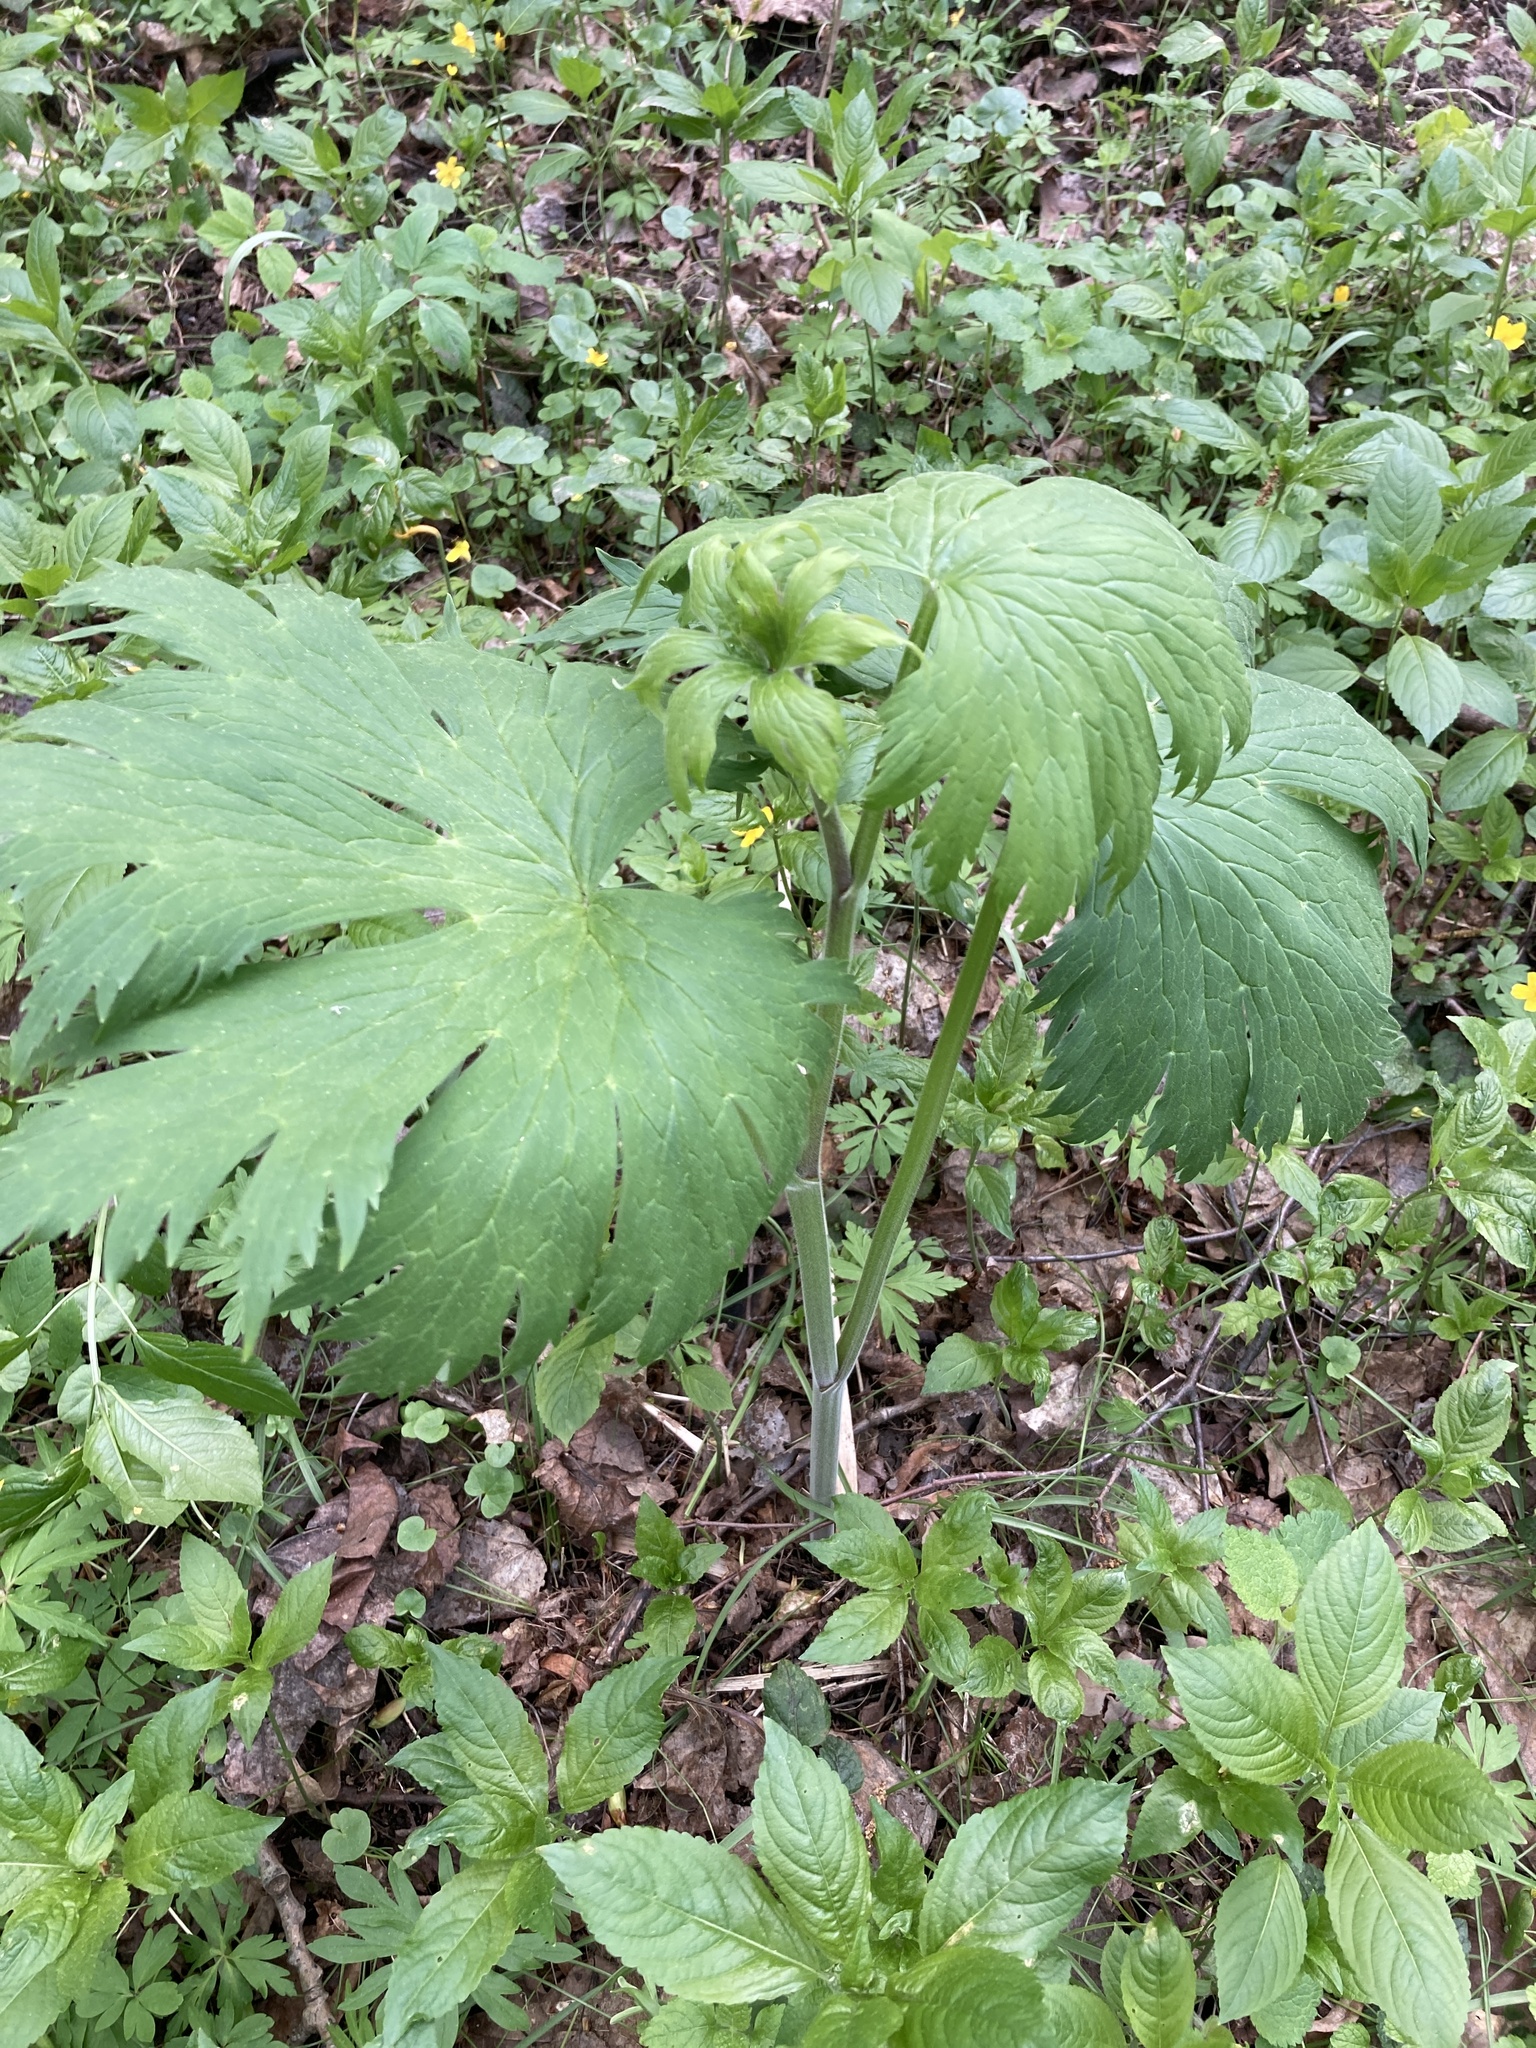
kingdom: Plantae
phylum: Tracheophyta
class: Magnoliopsida
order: Ranunculales
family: Ranunculaceae
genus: Aconitum
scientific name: Aconitum septentrionale
